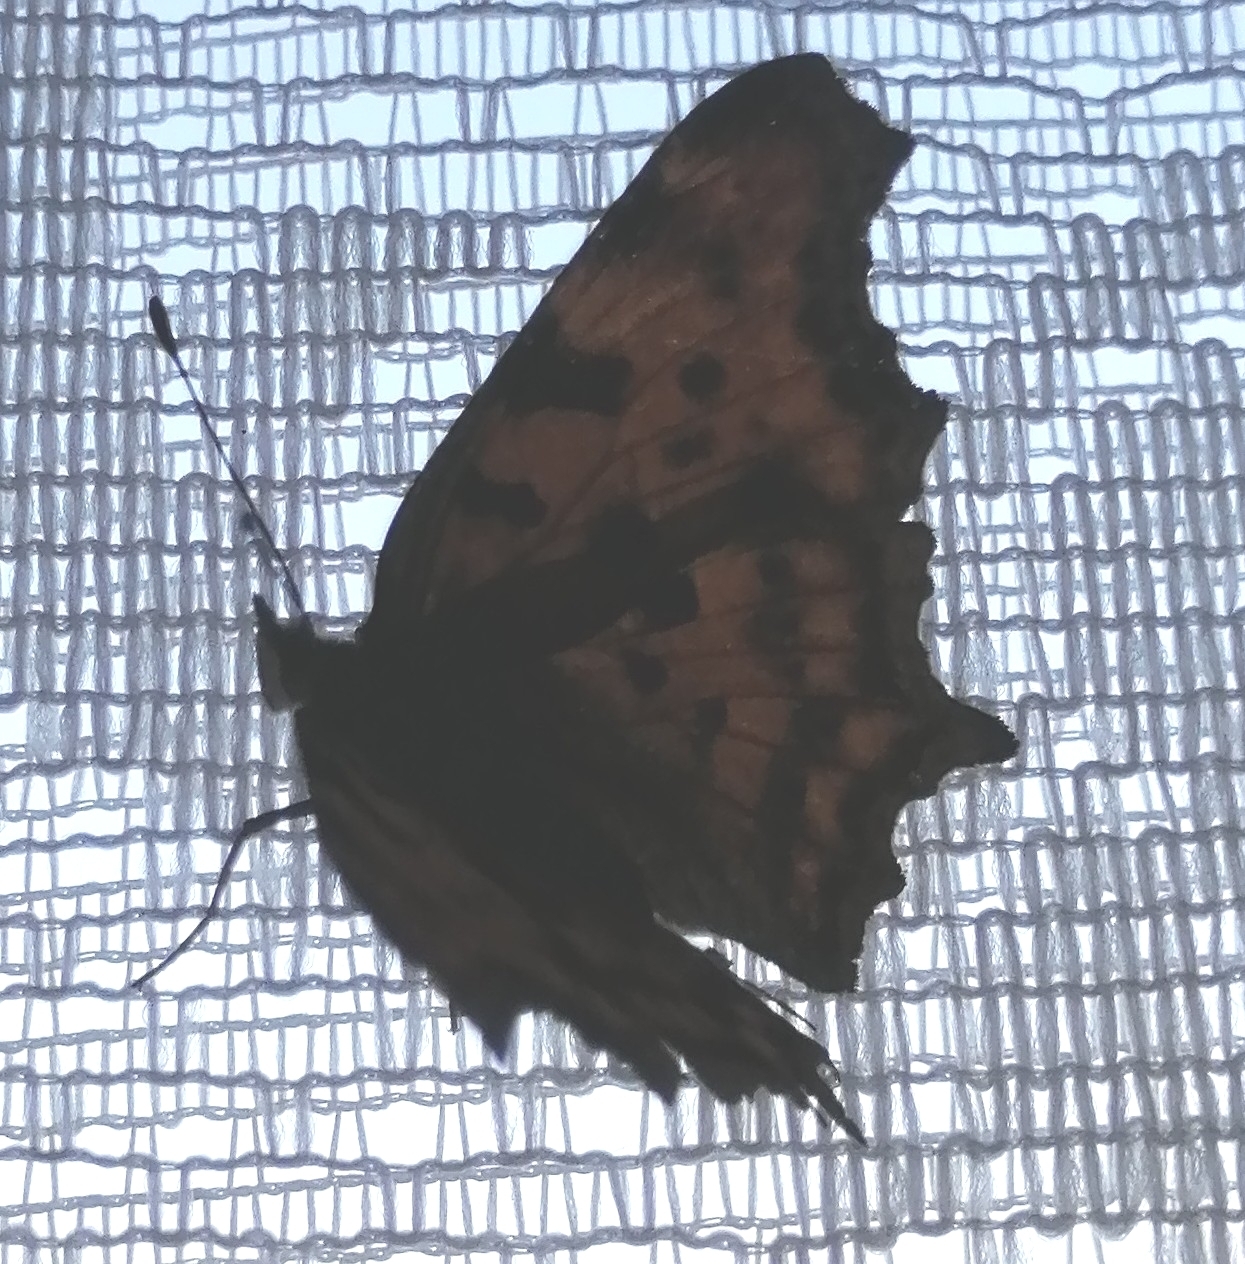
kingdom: Animalia
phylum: Arthropoda
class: Insecta
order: Lepidoptera
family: Nymphalidae
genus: Polygonia
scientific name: Polygonia c-album
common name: Comma
